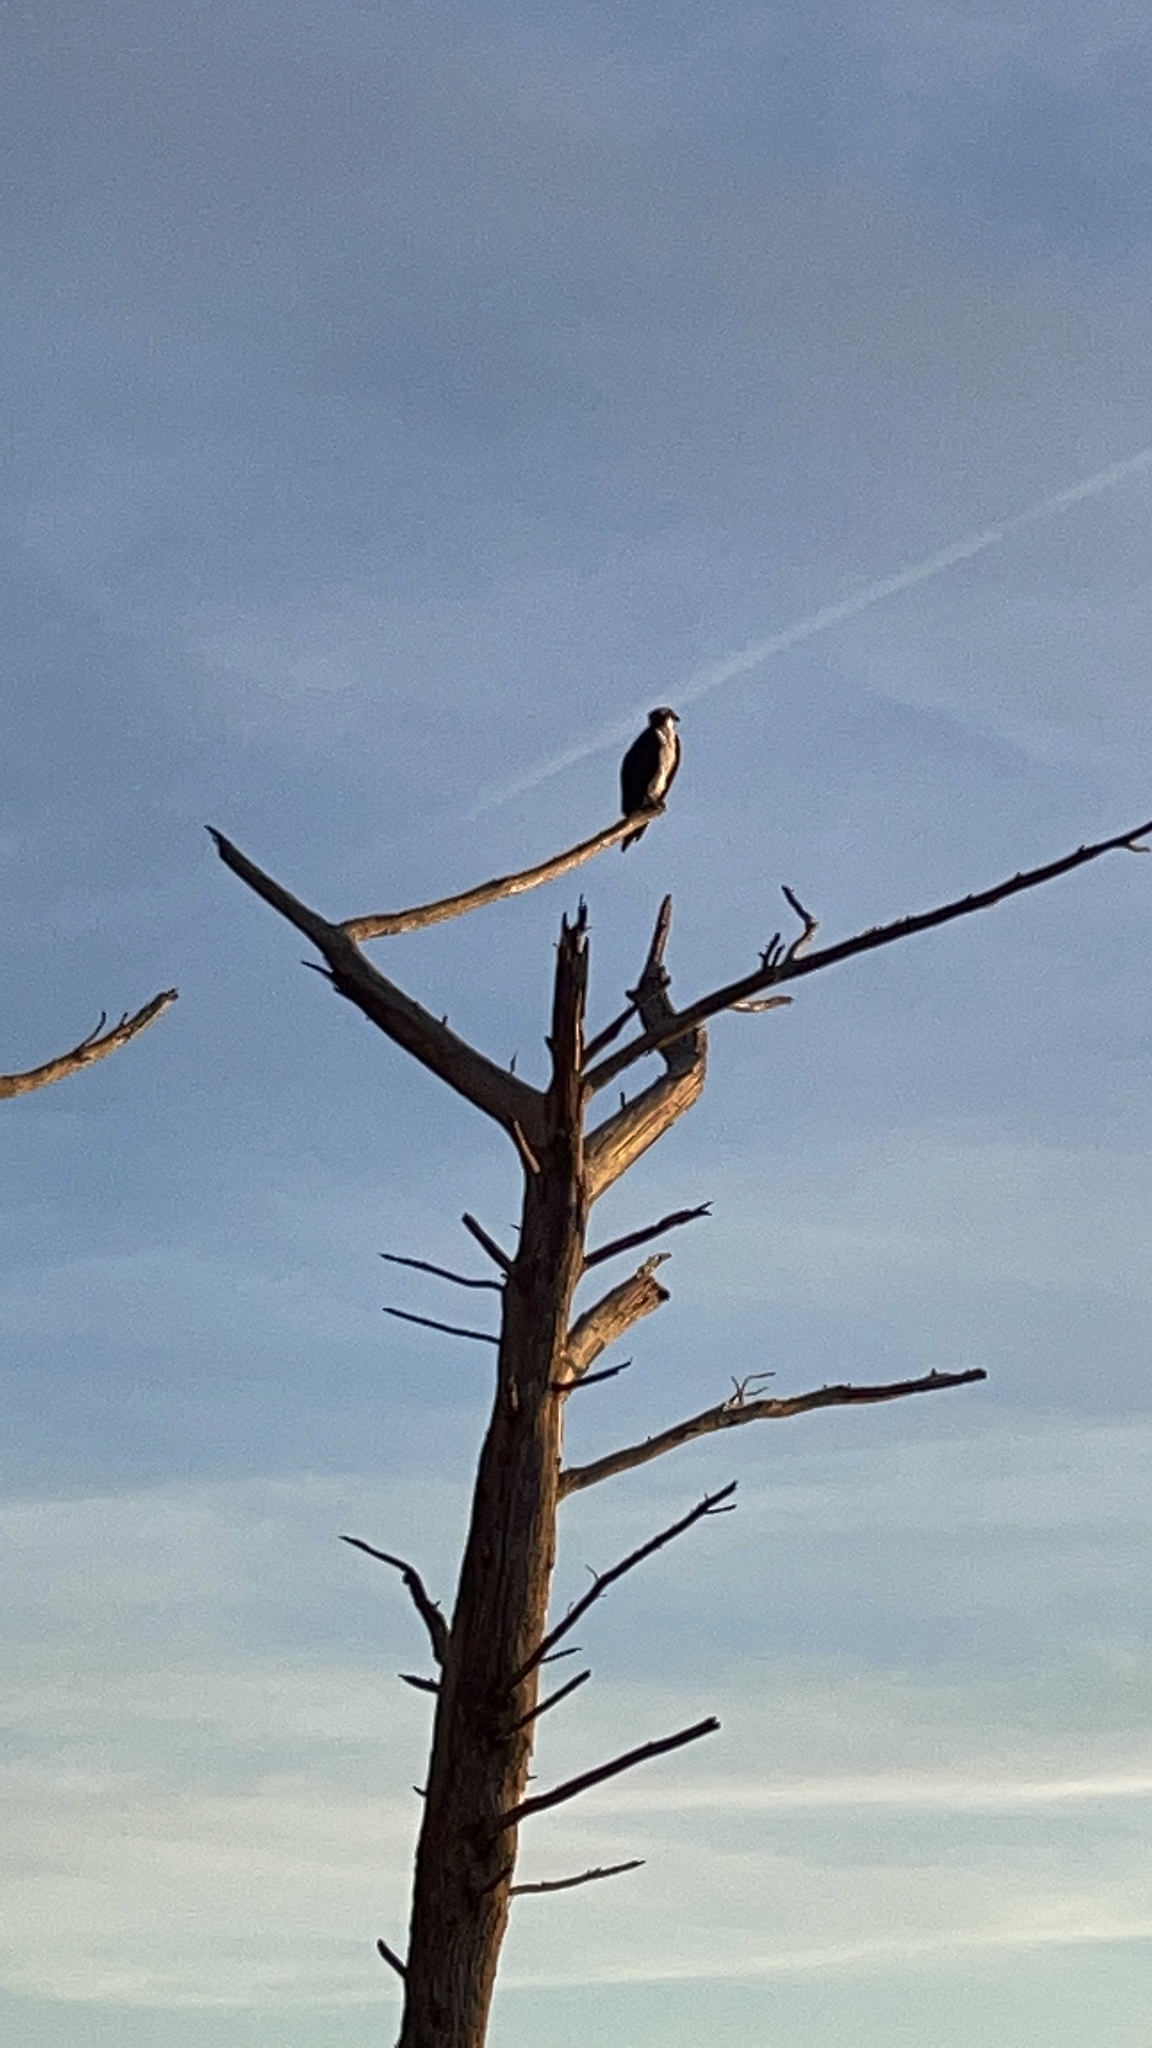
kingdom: Animalia
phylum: Chordata
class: Aves
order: Accipitriformes
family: Pandionidae
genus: Pandion
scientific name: Pandion haliaetus
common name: Osprey
